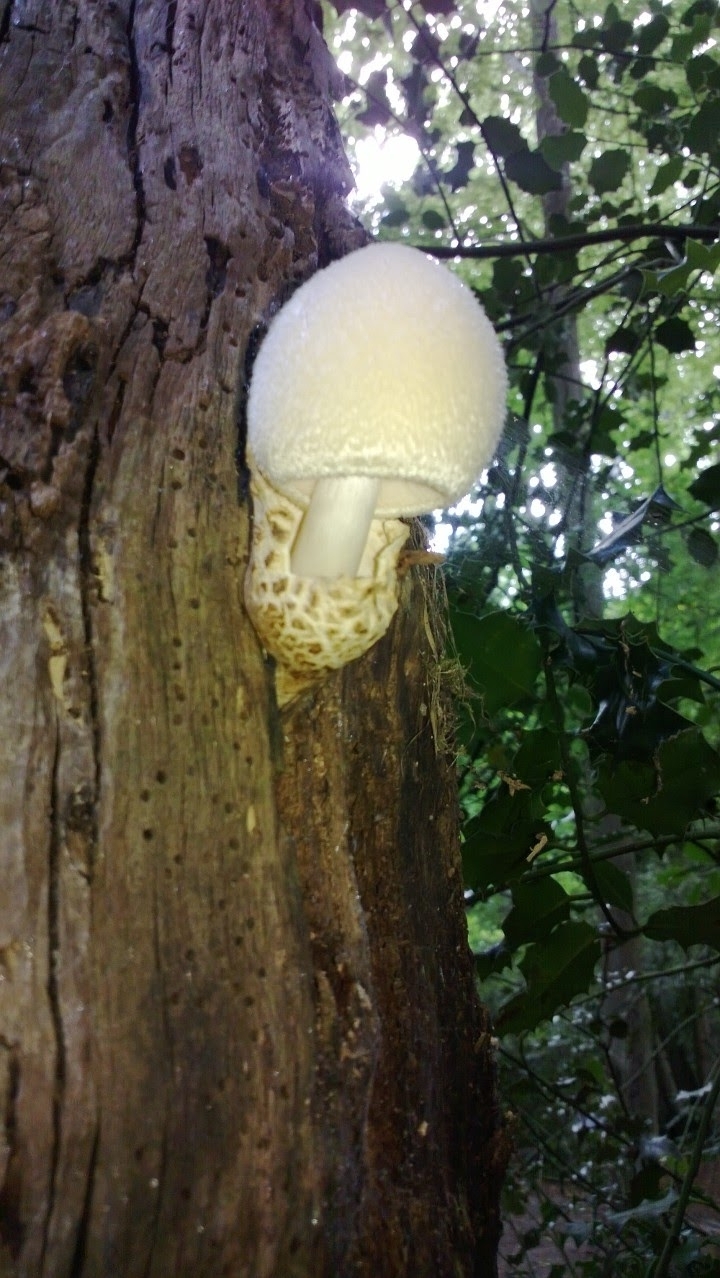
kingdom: Fungi
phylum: Basidiomycota
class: Agaricomycetes
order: Agaricales
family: Pluteaceae
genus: Volvariella
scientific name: Volvariella bombycina
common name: Silky rosegill
